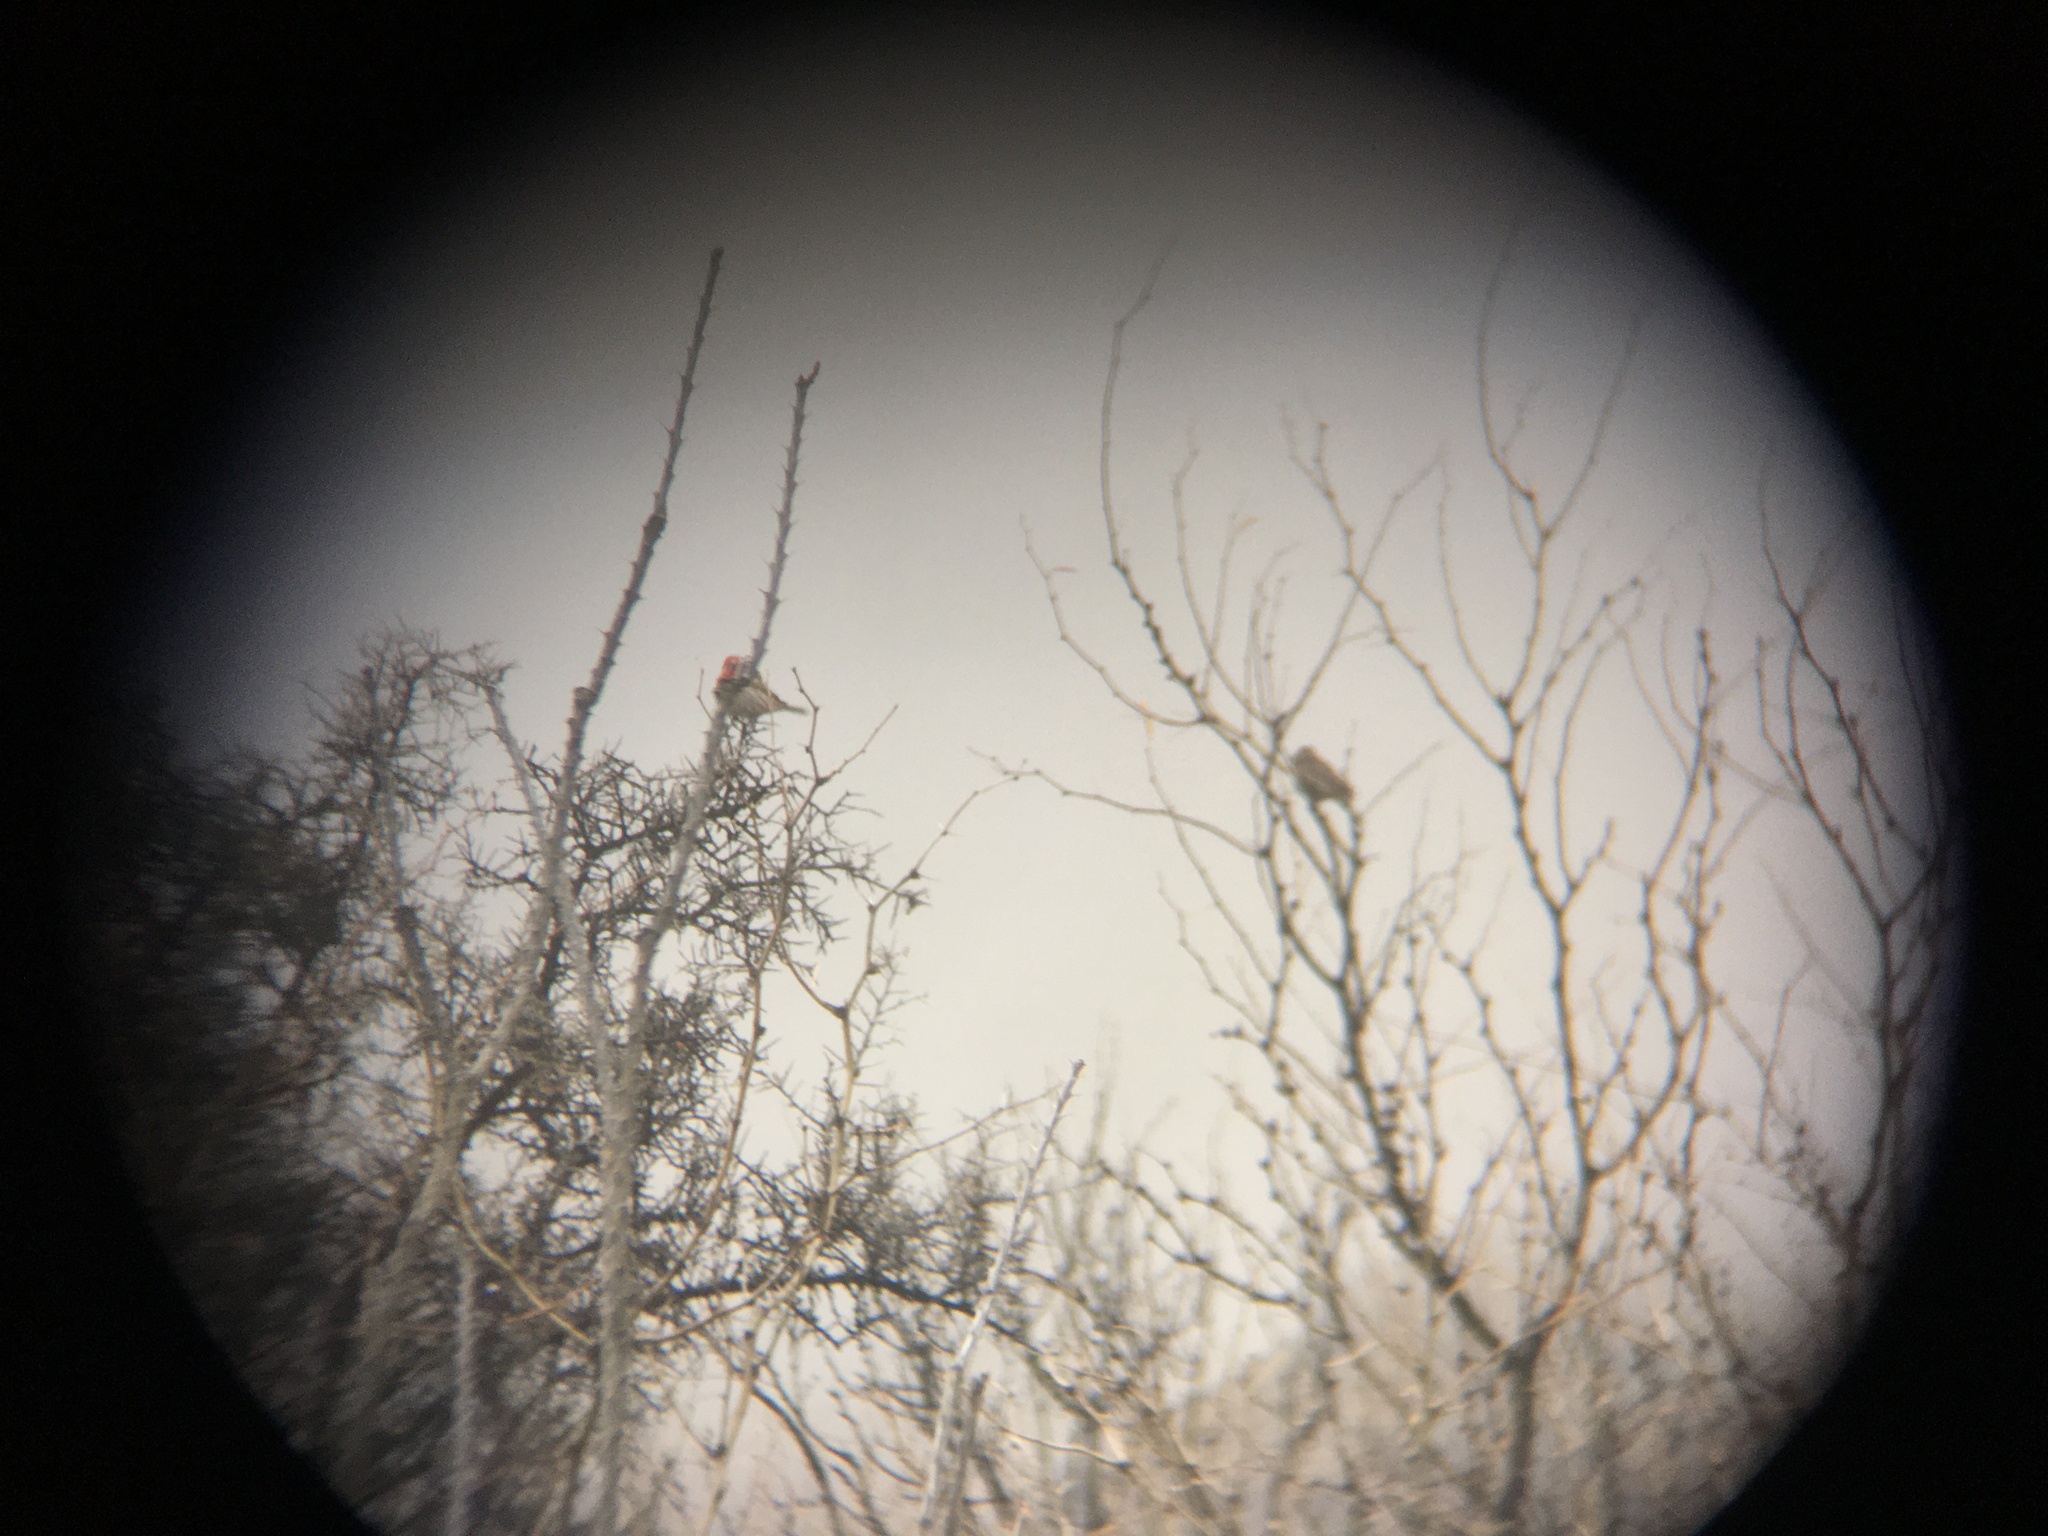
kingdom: Animalia
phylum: Chordata
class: Aves
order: Passeriformes
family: Fringillidae
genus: Haemorhous
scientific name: Haemorhous mexicanus
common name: House finch
